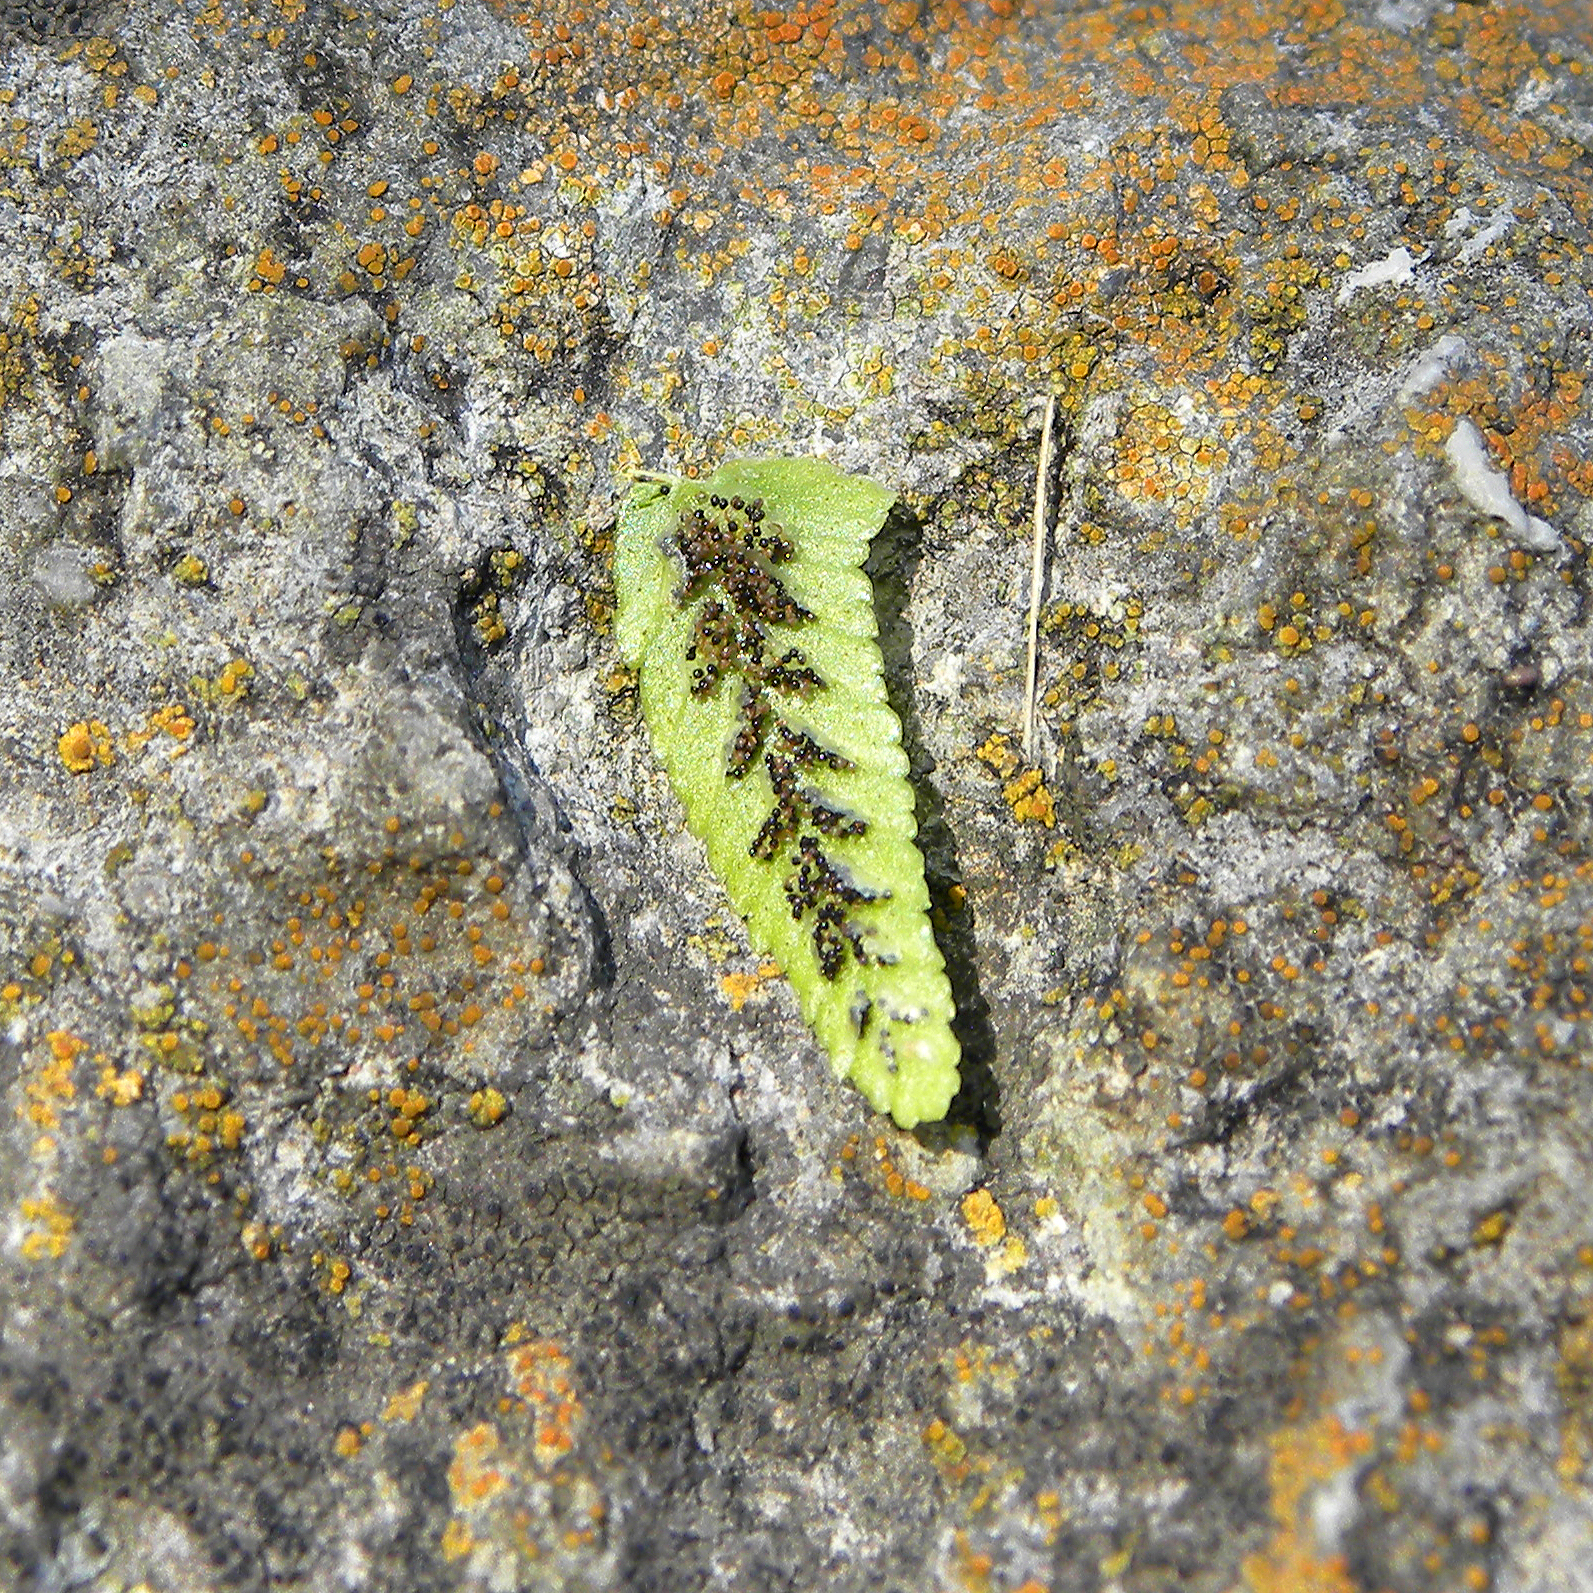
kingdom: Plantae
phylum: Tracheophyta
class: Polypodiopsida
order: Polypodiales
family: Aspleniaceae
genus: Asplenium
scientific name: Asplenium platyneuron
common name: Ebony spleenwort
